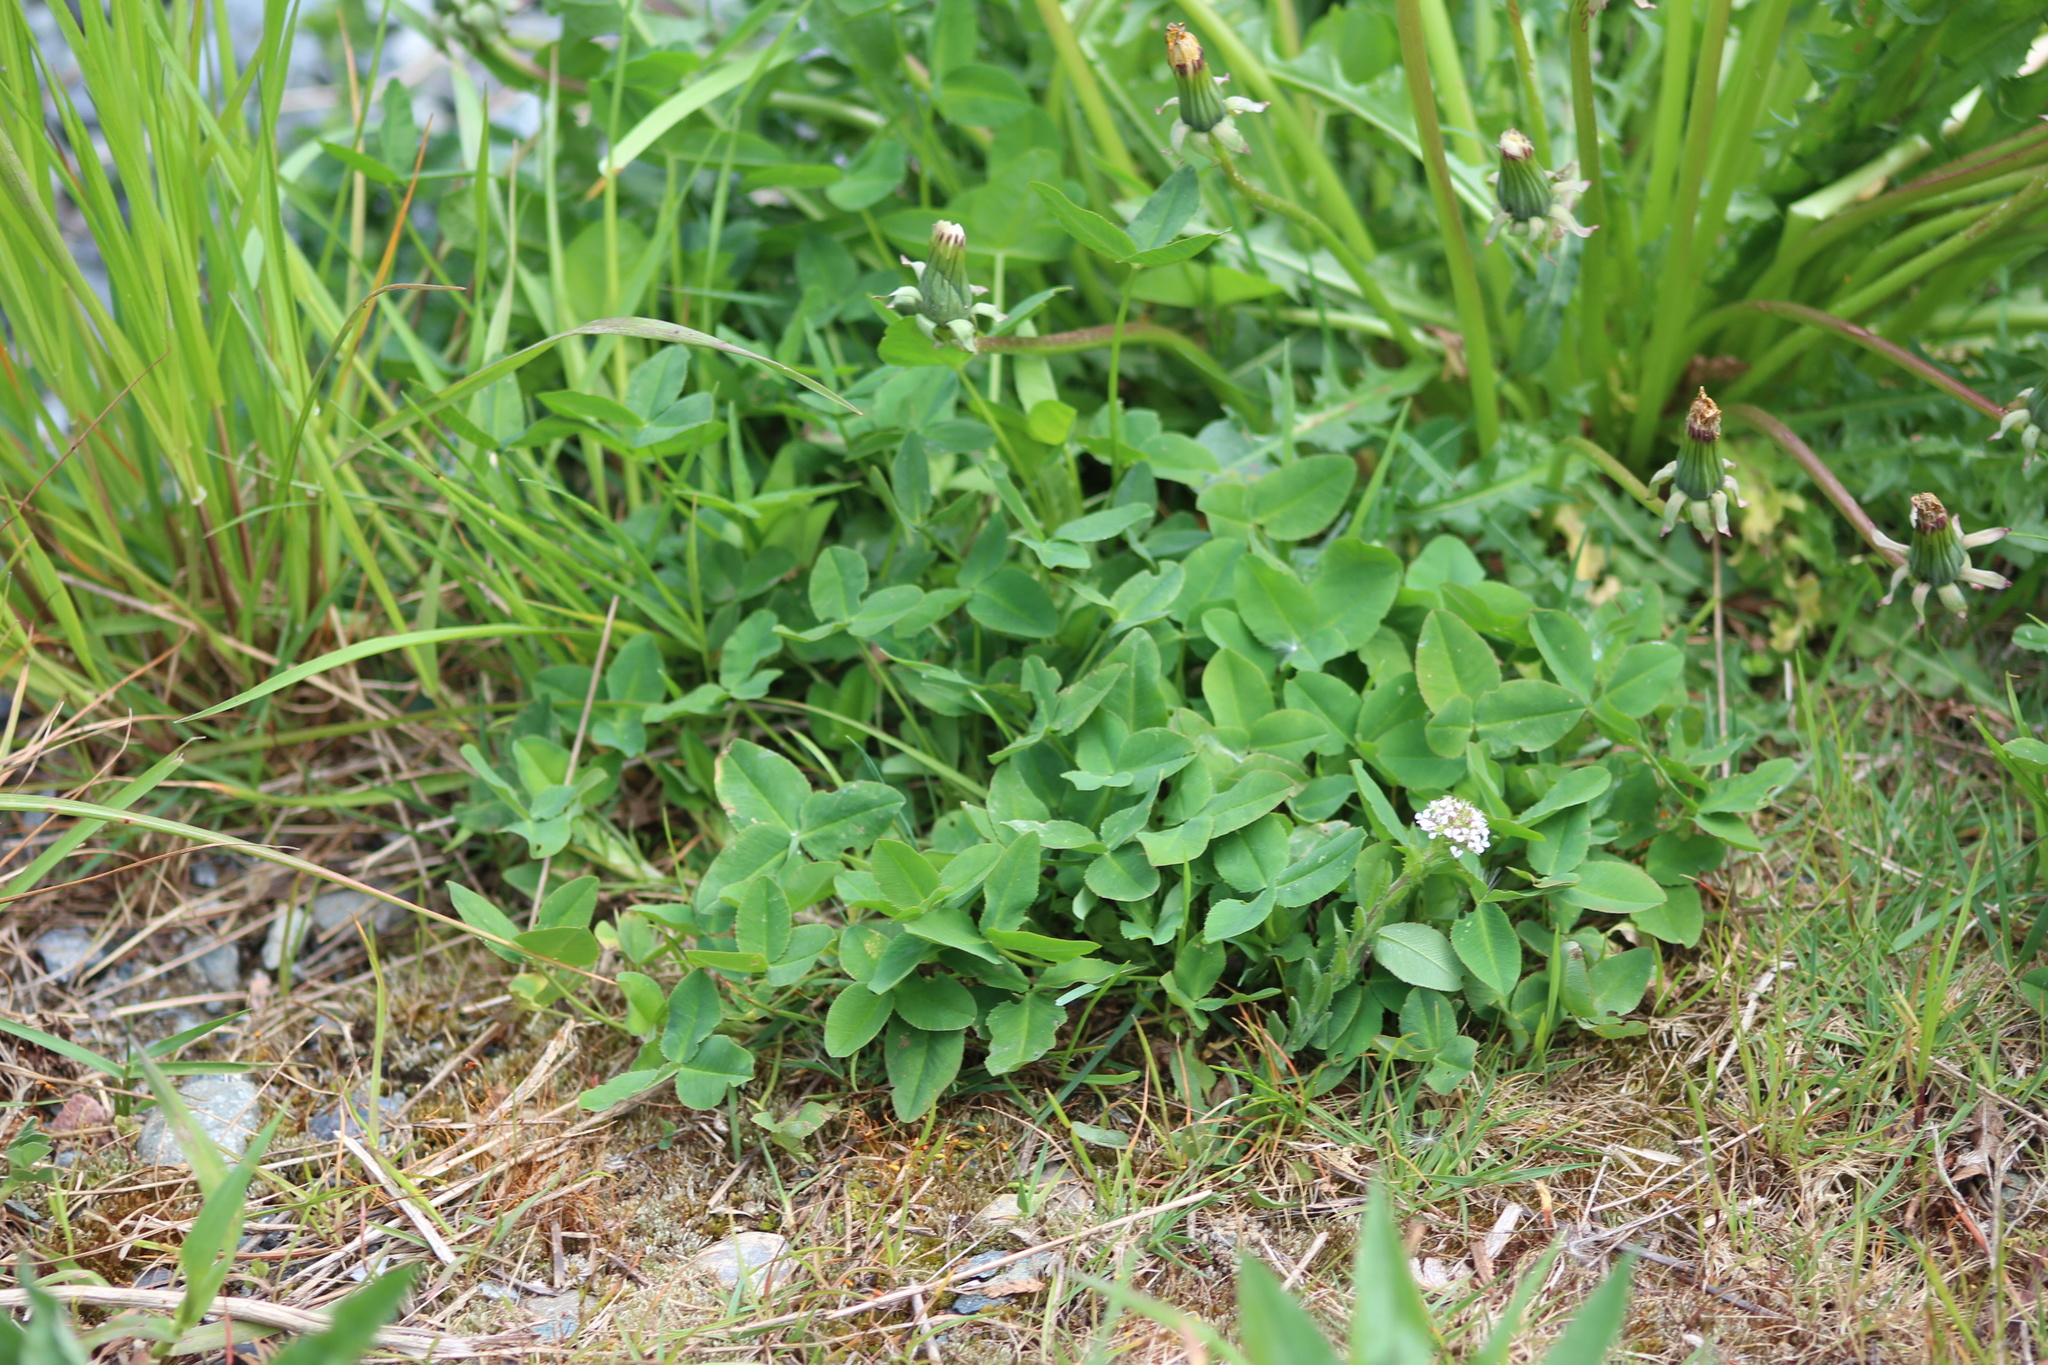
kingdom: Plantae
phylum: Tracheophyta
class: Magnoliopsida
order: Fabales
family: Fabaceae
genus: Trifolium
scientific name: Trifolium hybridum
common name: Alsike clover
